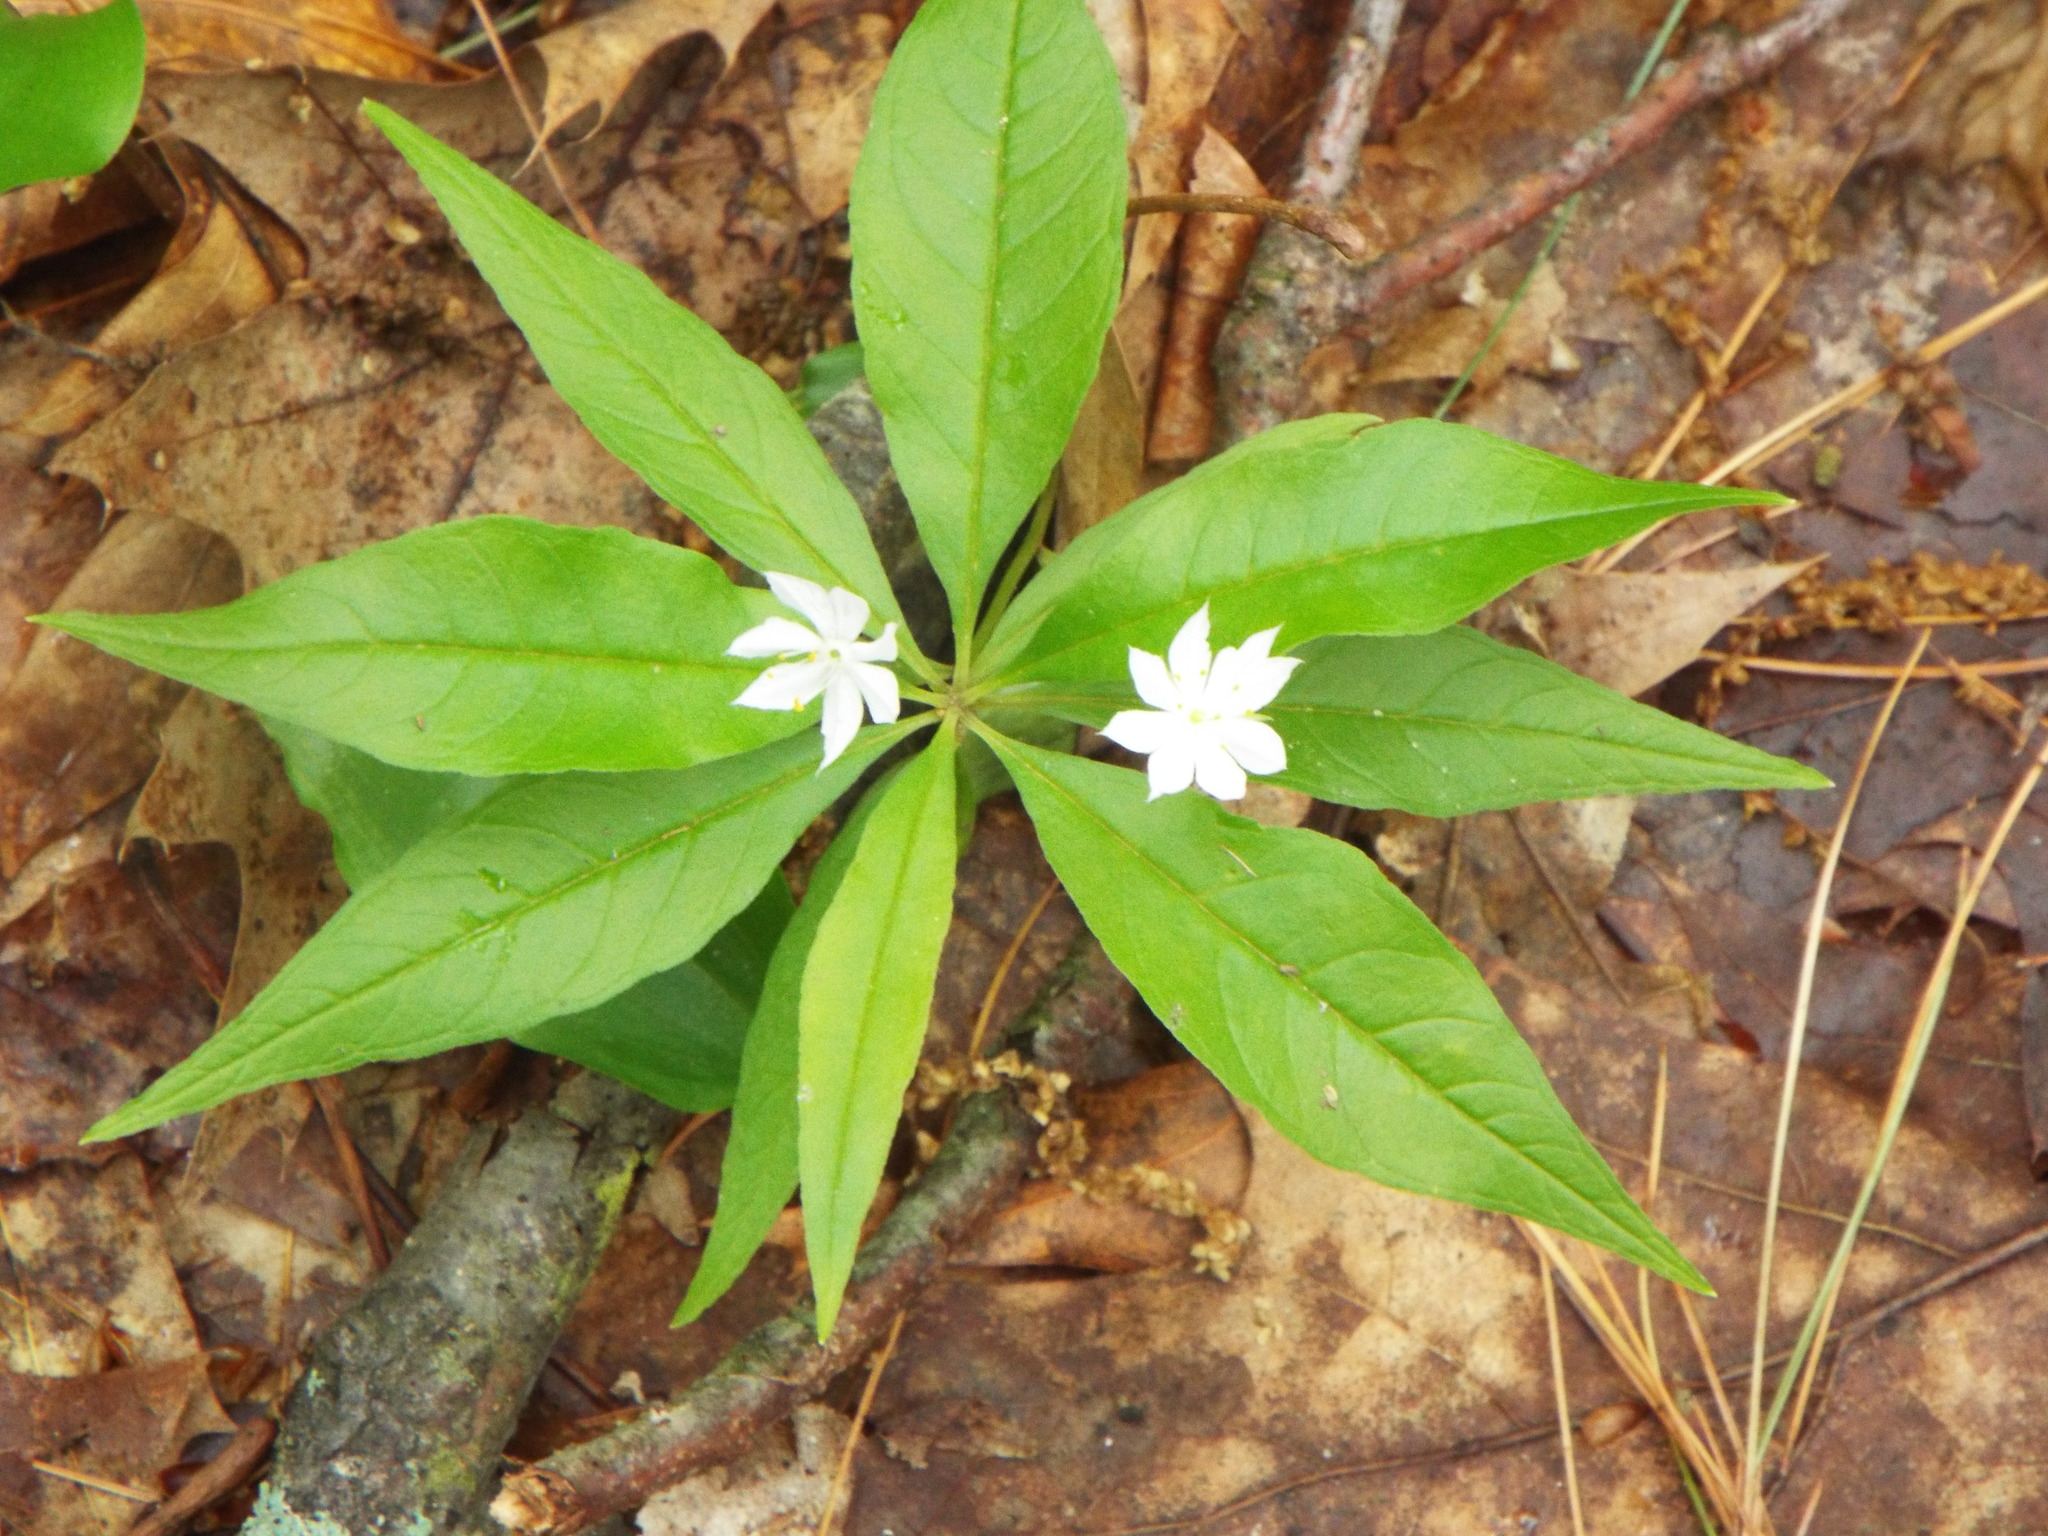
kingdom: Plantae
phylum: Tracheophyta
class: Magnoliopsida
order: Ericales
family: Primulaceae
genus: Lysimachia
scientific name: Lysimachia borealis
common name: American starflower
